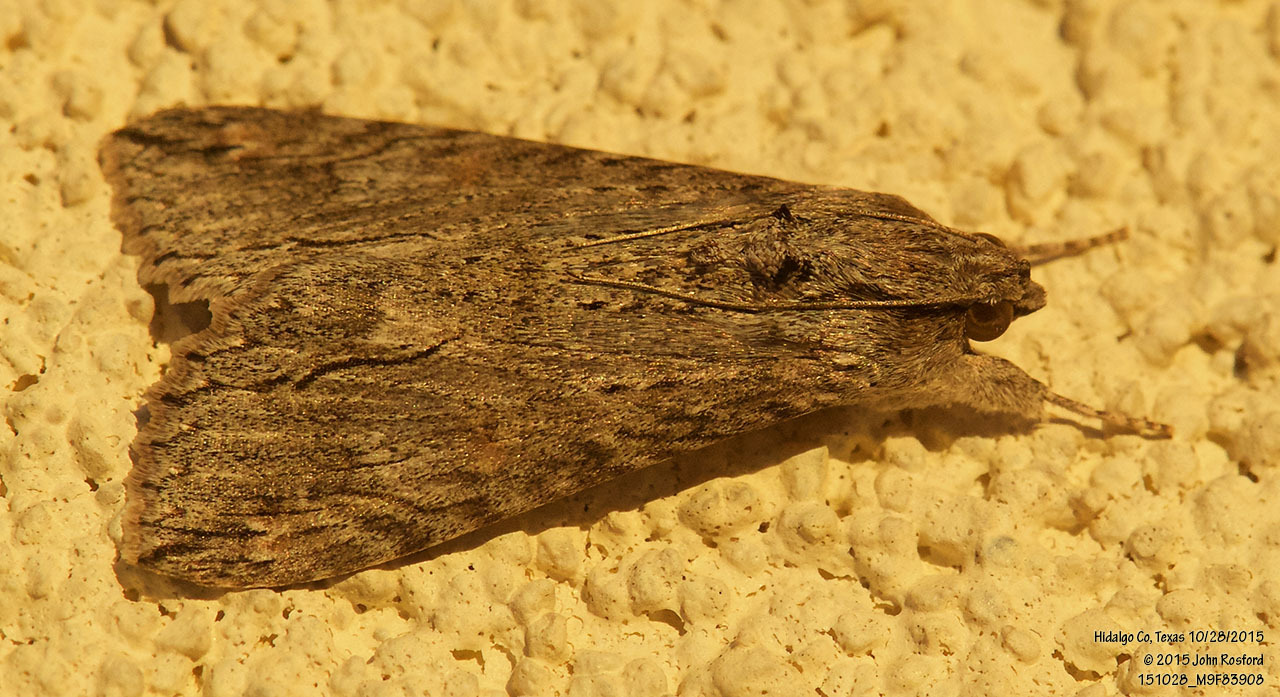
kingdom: Animalia
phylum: Arthropoda
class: Insecta
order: Lepidoptera
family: Erebidae
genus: Melipotis
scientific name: Melipotis acontioides
